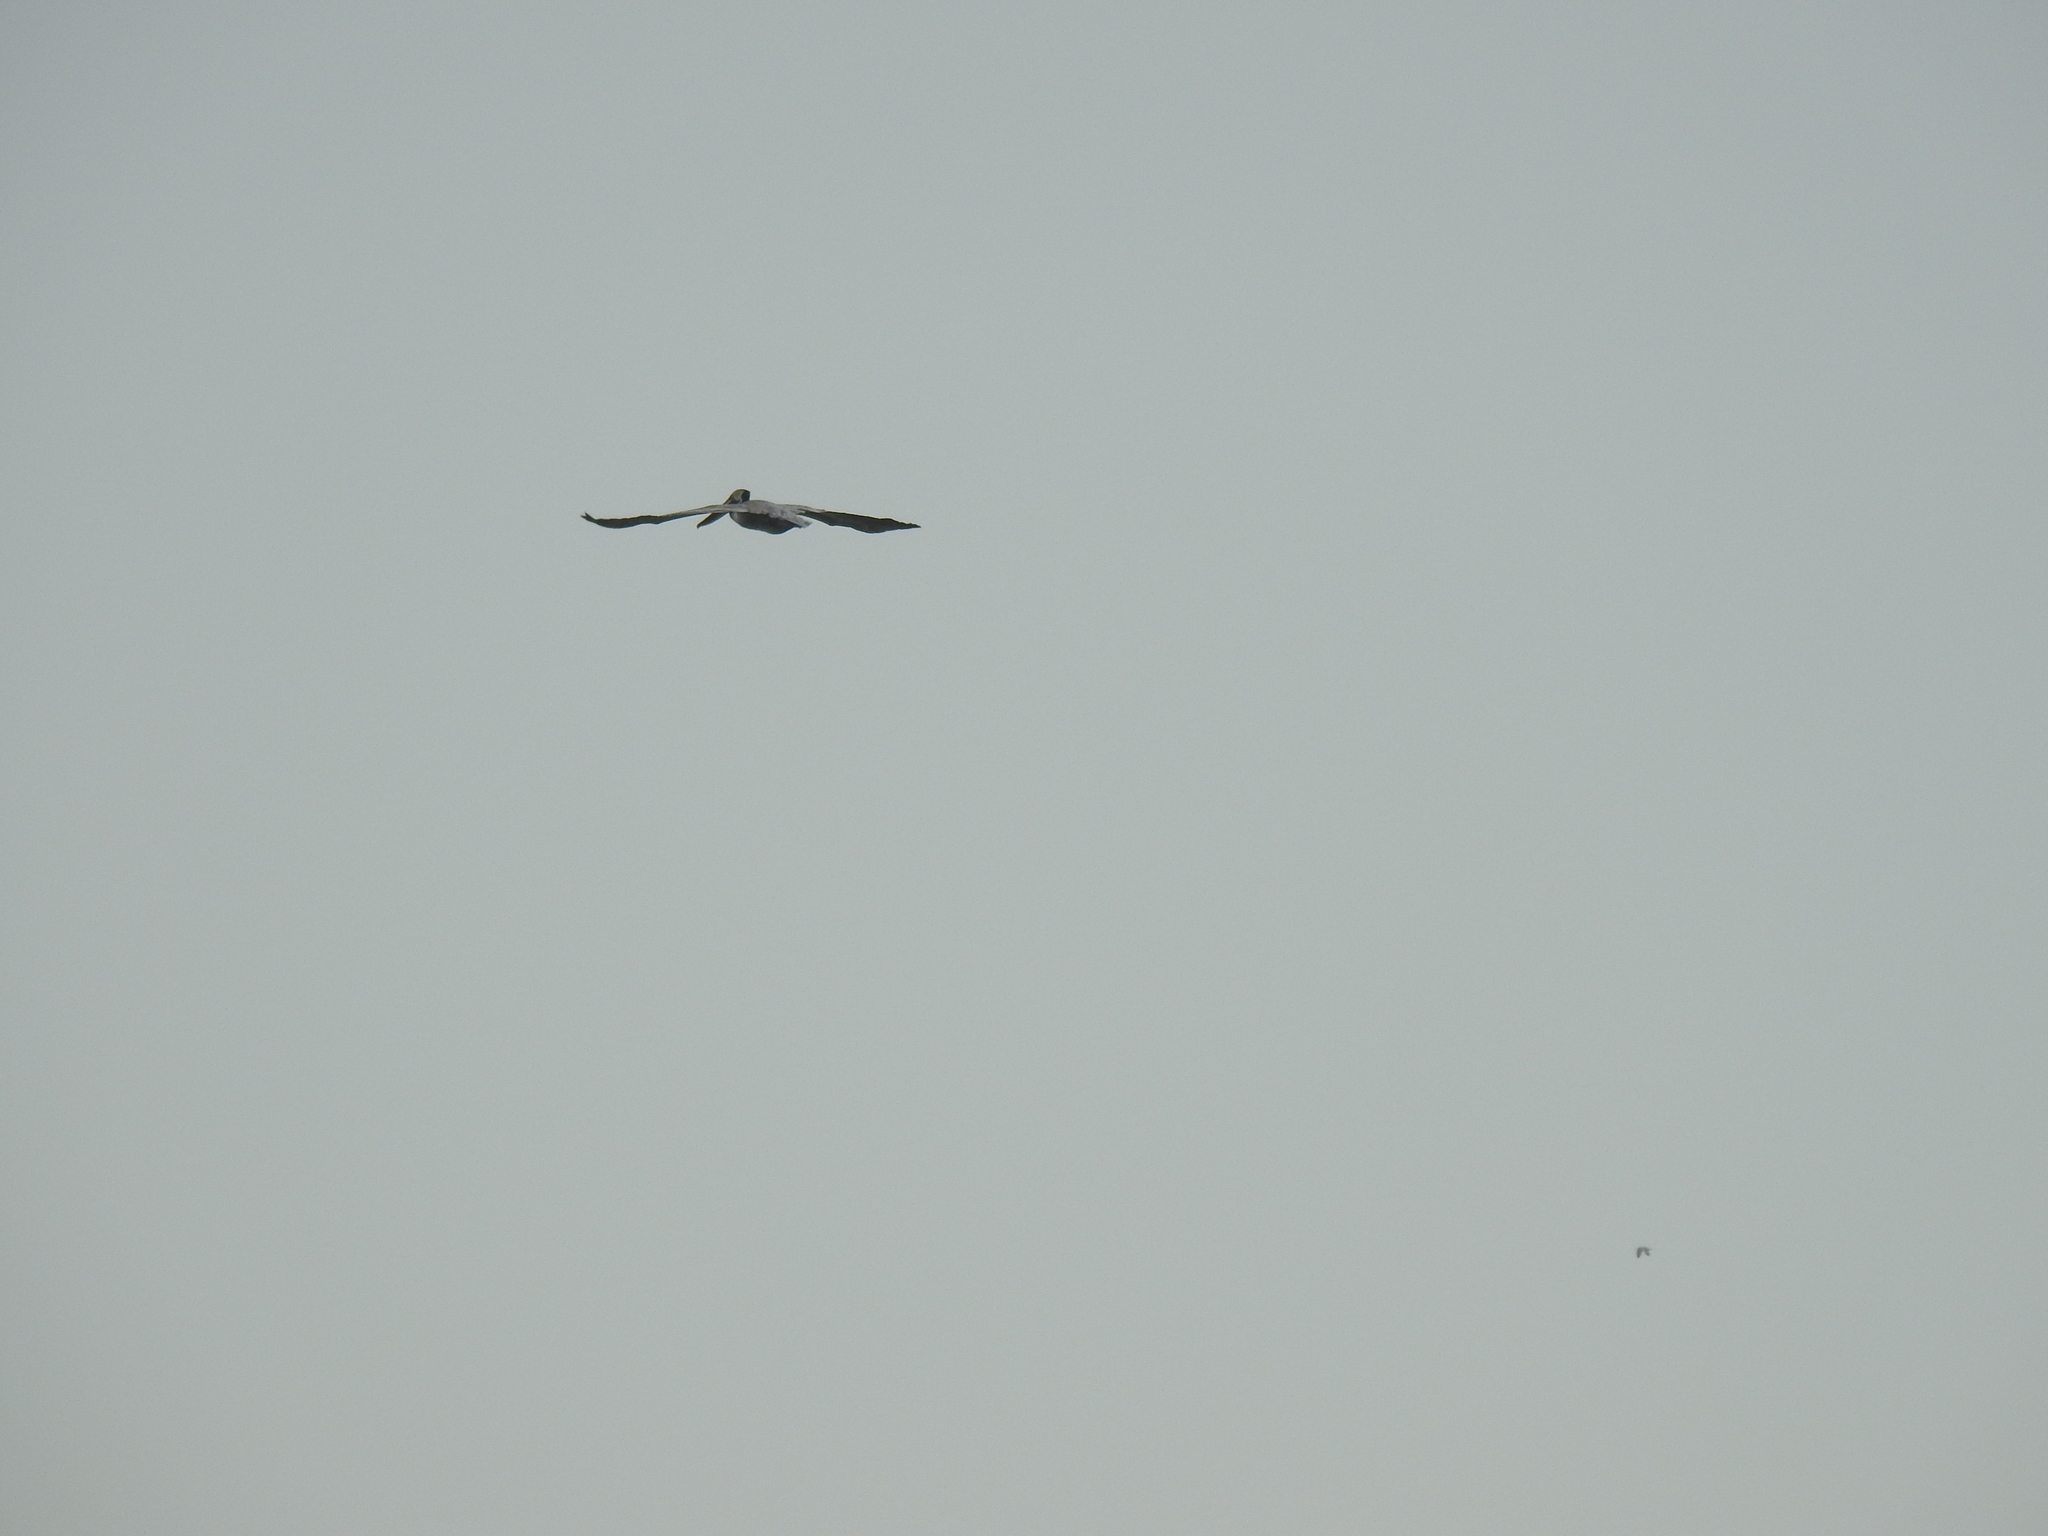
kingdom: Animalia
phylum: Chordata
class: Aves
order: Pelecaniformes
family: Pelecanidae
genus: Pelecanus
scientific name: Pelecanus occidentalis
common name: Brown pelican
